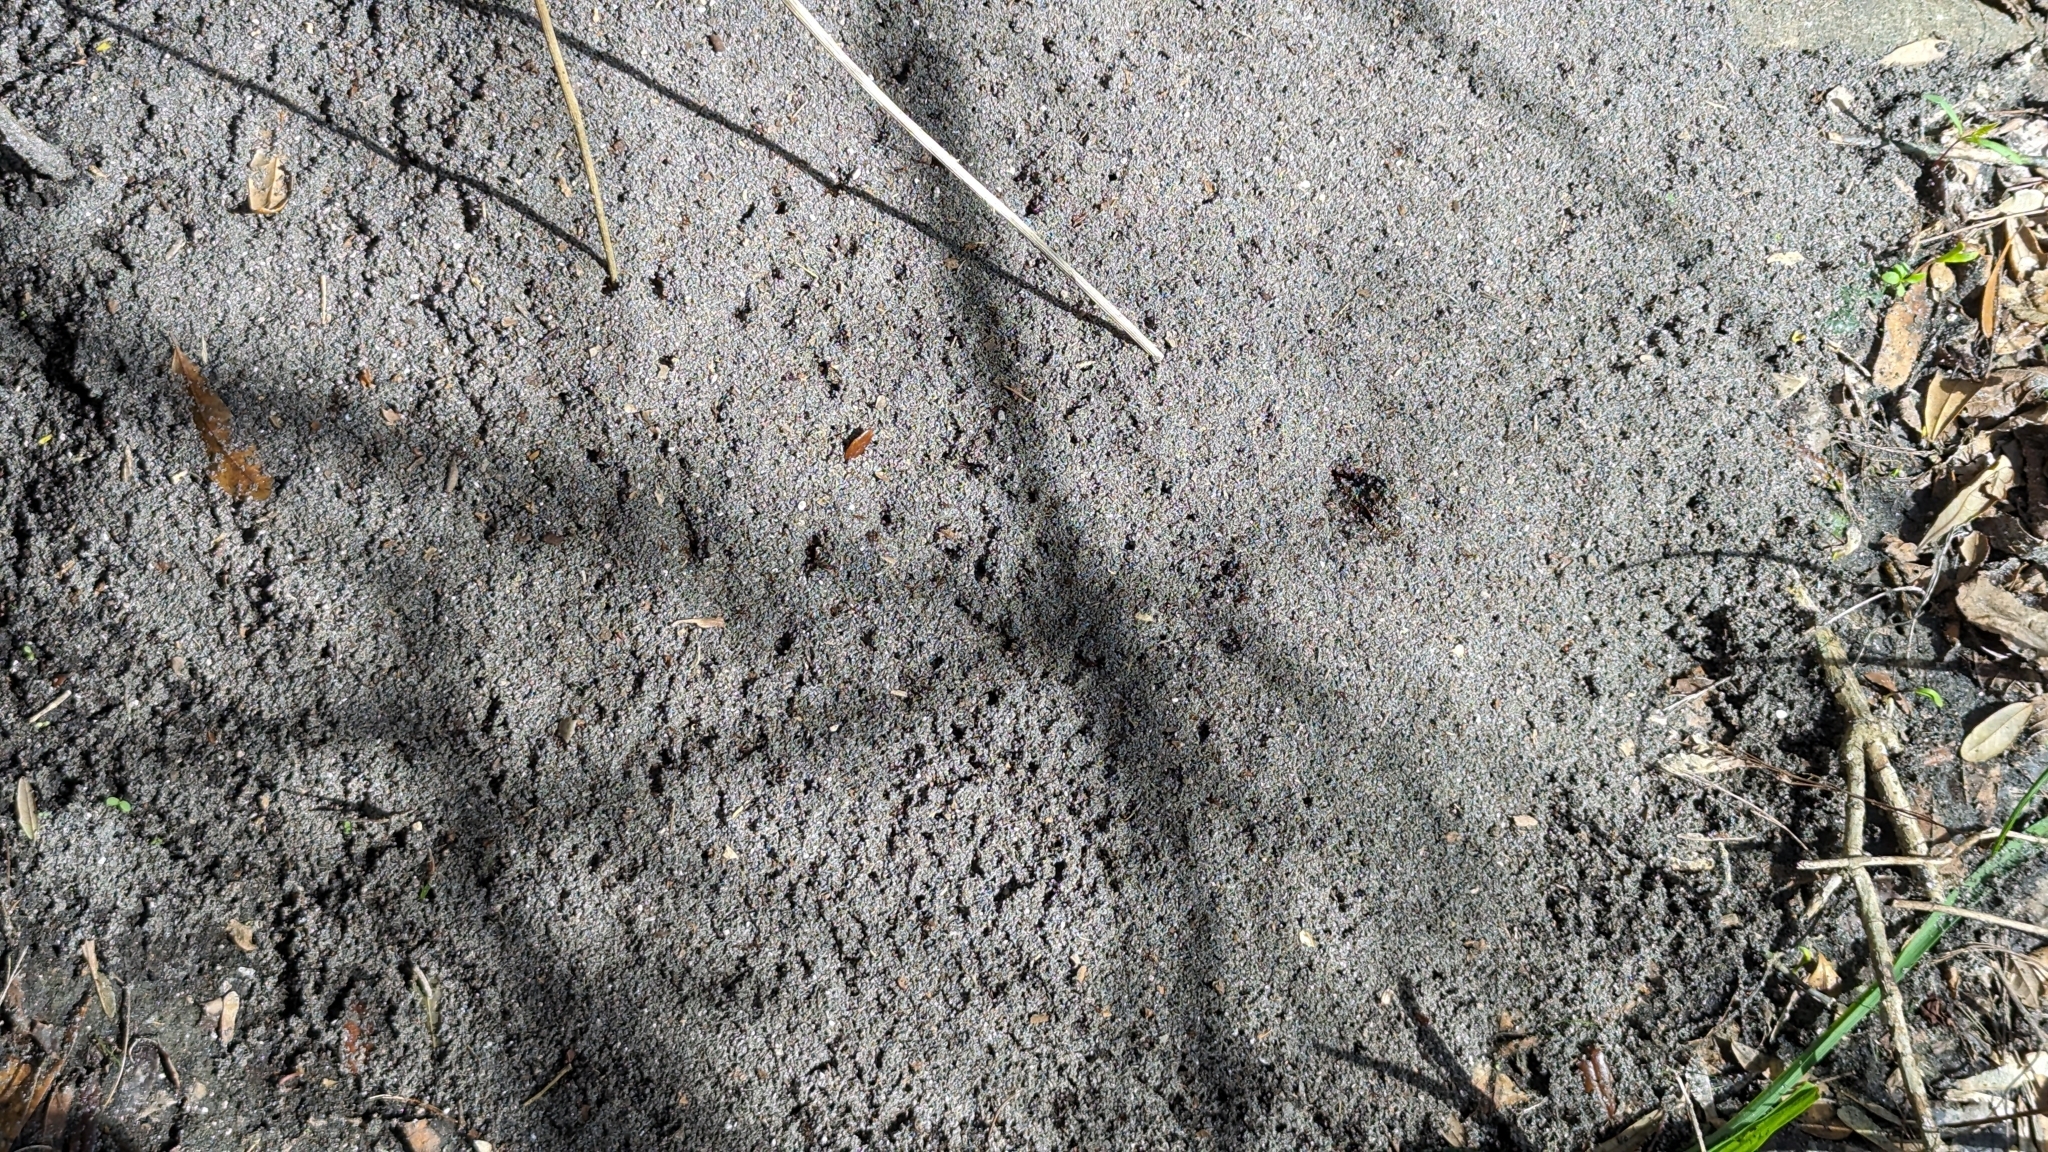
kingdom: Animalia
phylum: Arthropoda
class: Insecta
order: Hymenoptera
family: Formicidae
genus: Solenopsis
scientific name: Solenopsis invicta
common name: Red imported fire ant
